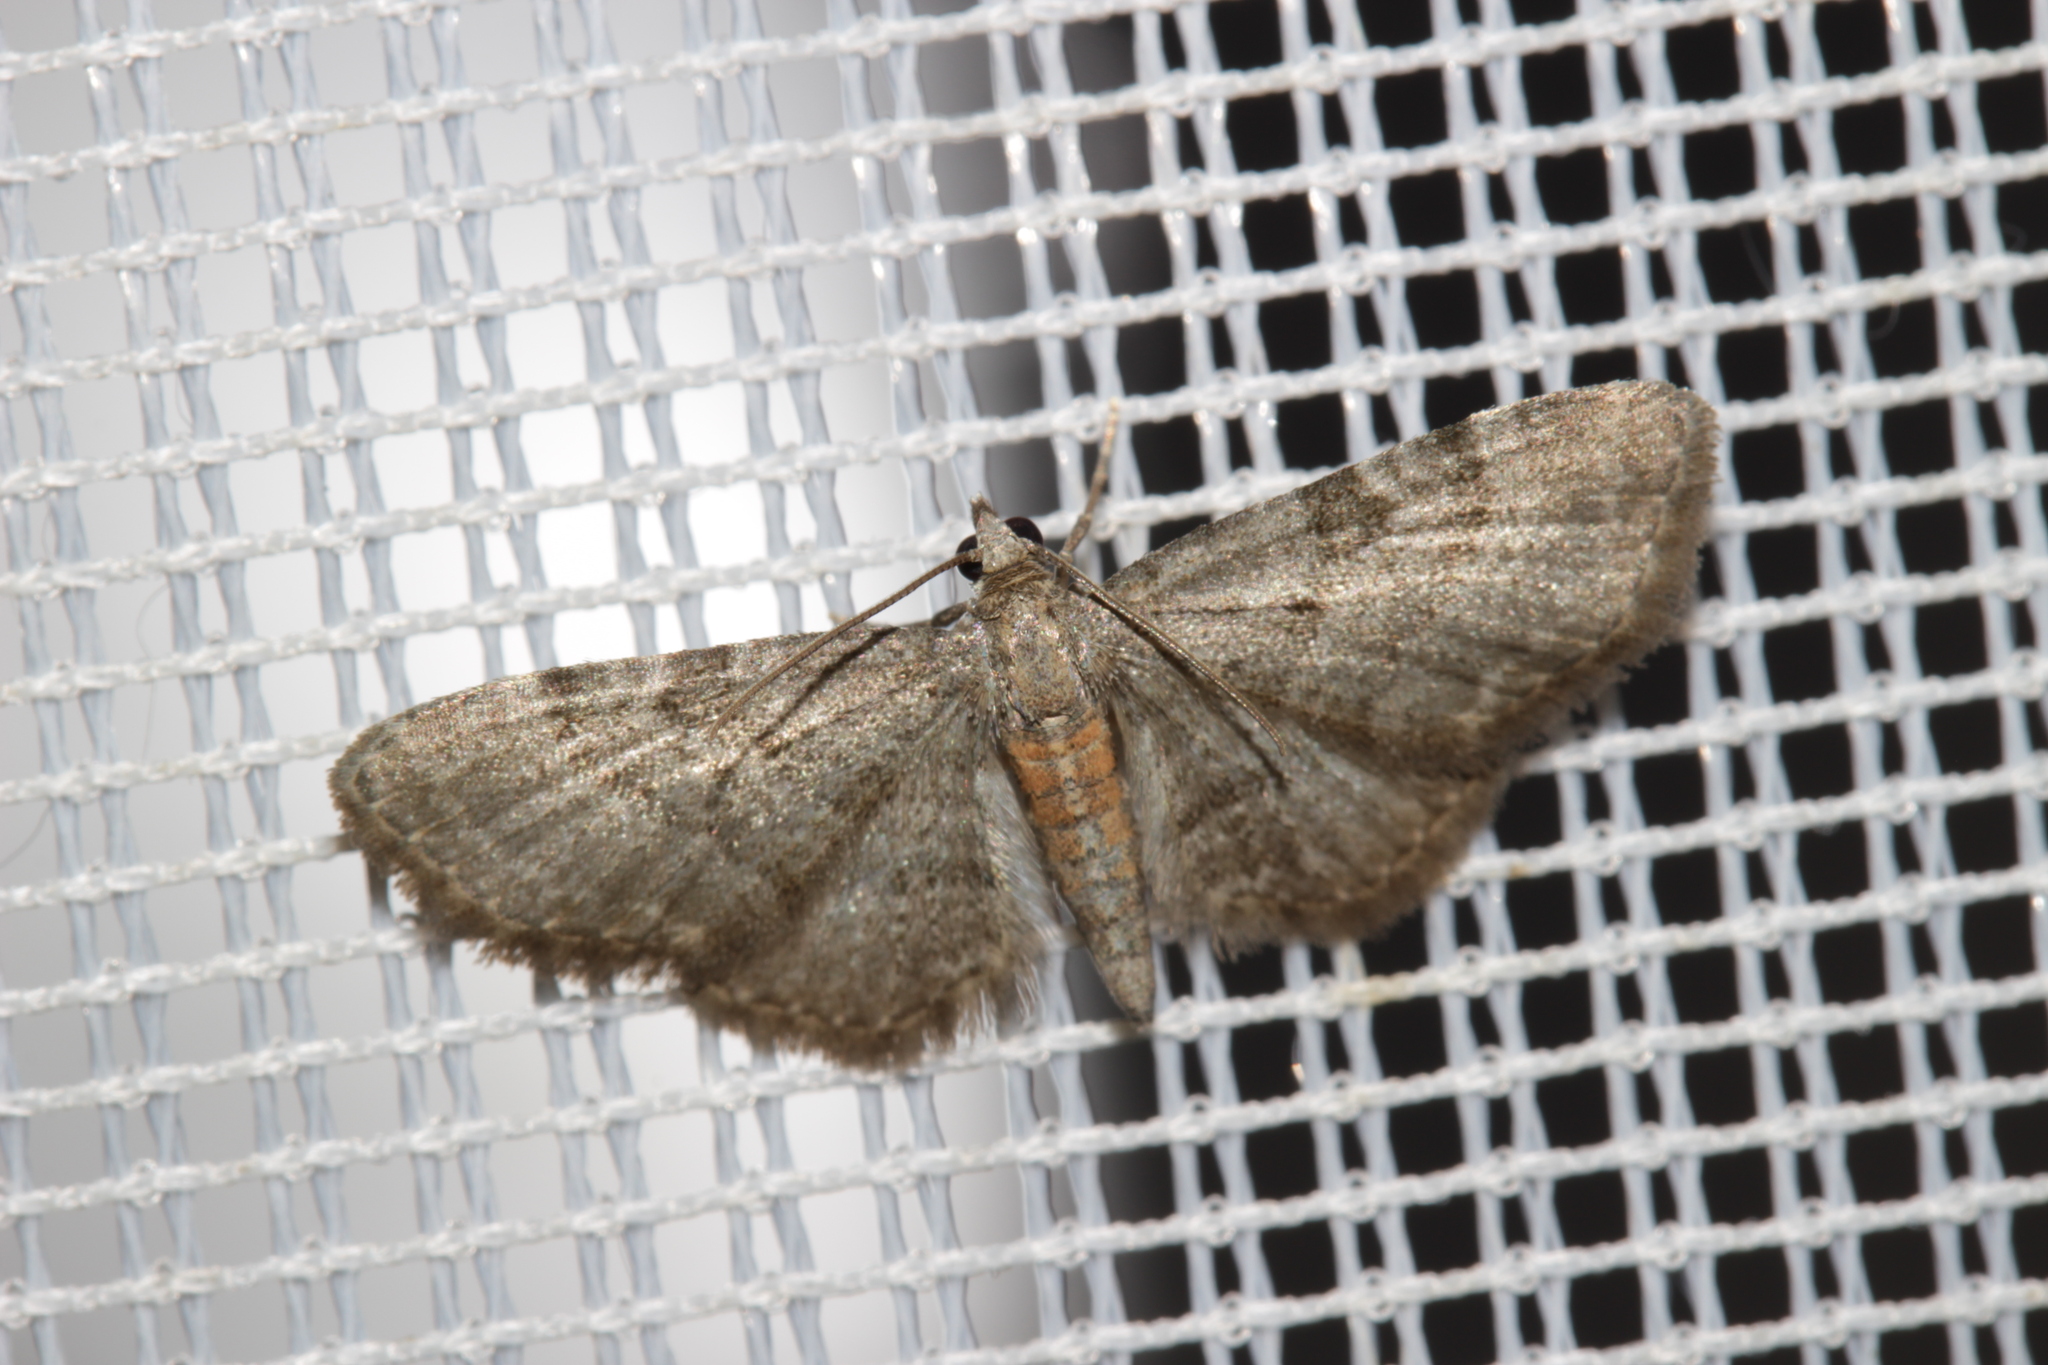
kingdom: Animalia
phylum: Arthropoda
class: Insecta
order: Lepidoptera
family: Geometridae
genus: Eupithecia
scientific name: Eupithecia haworthiata
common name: Haworth's pug
